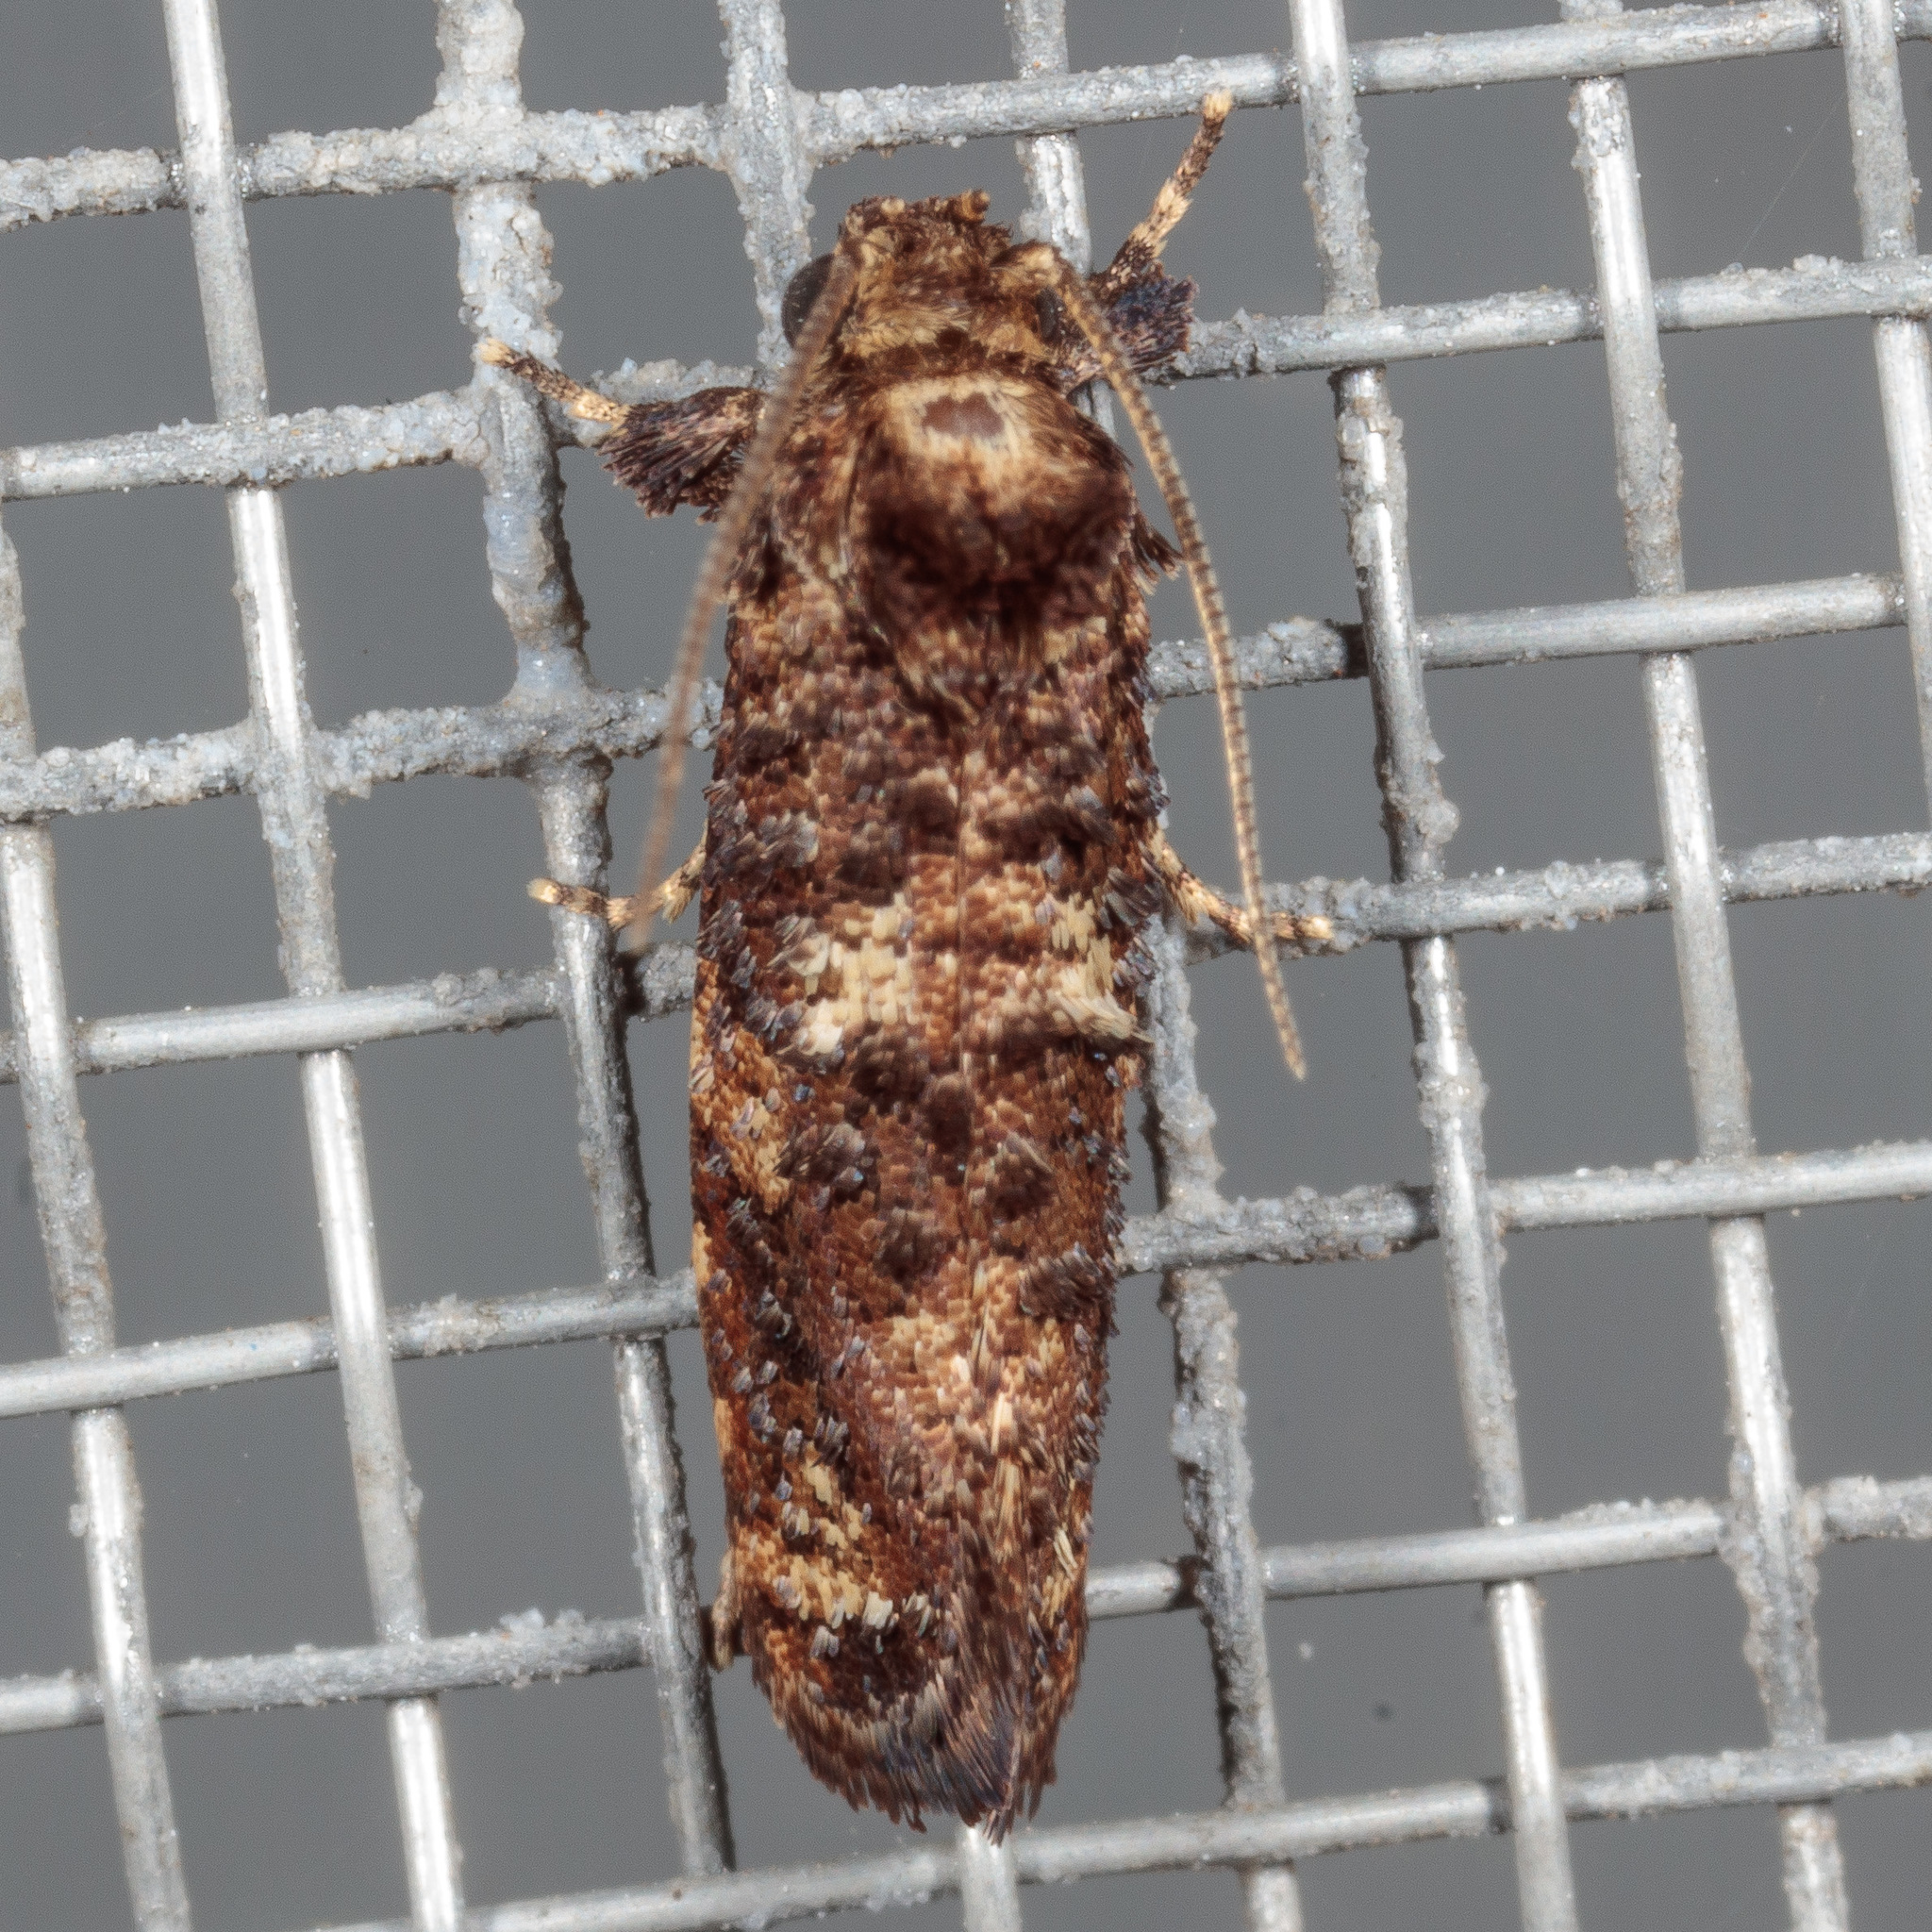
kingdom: Animalia
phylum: Arthropoda
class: Insecta
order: Lepidoptera
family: Tineidae
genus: Acrolophus
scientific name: Acrolophus cressoni
